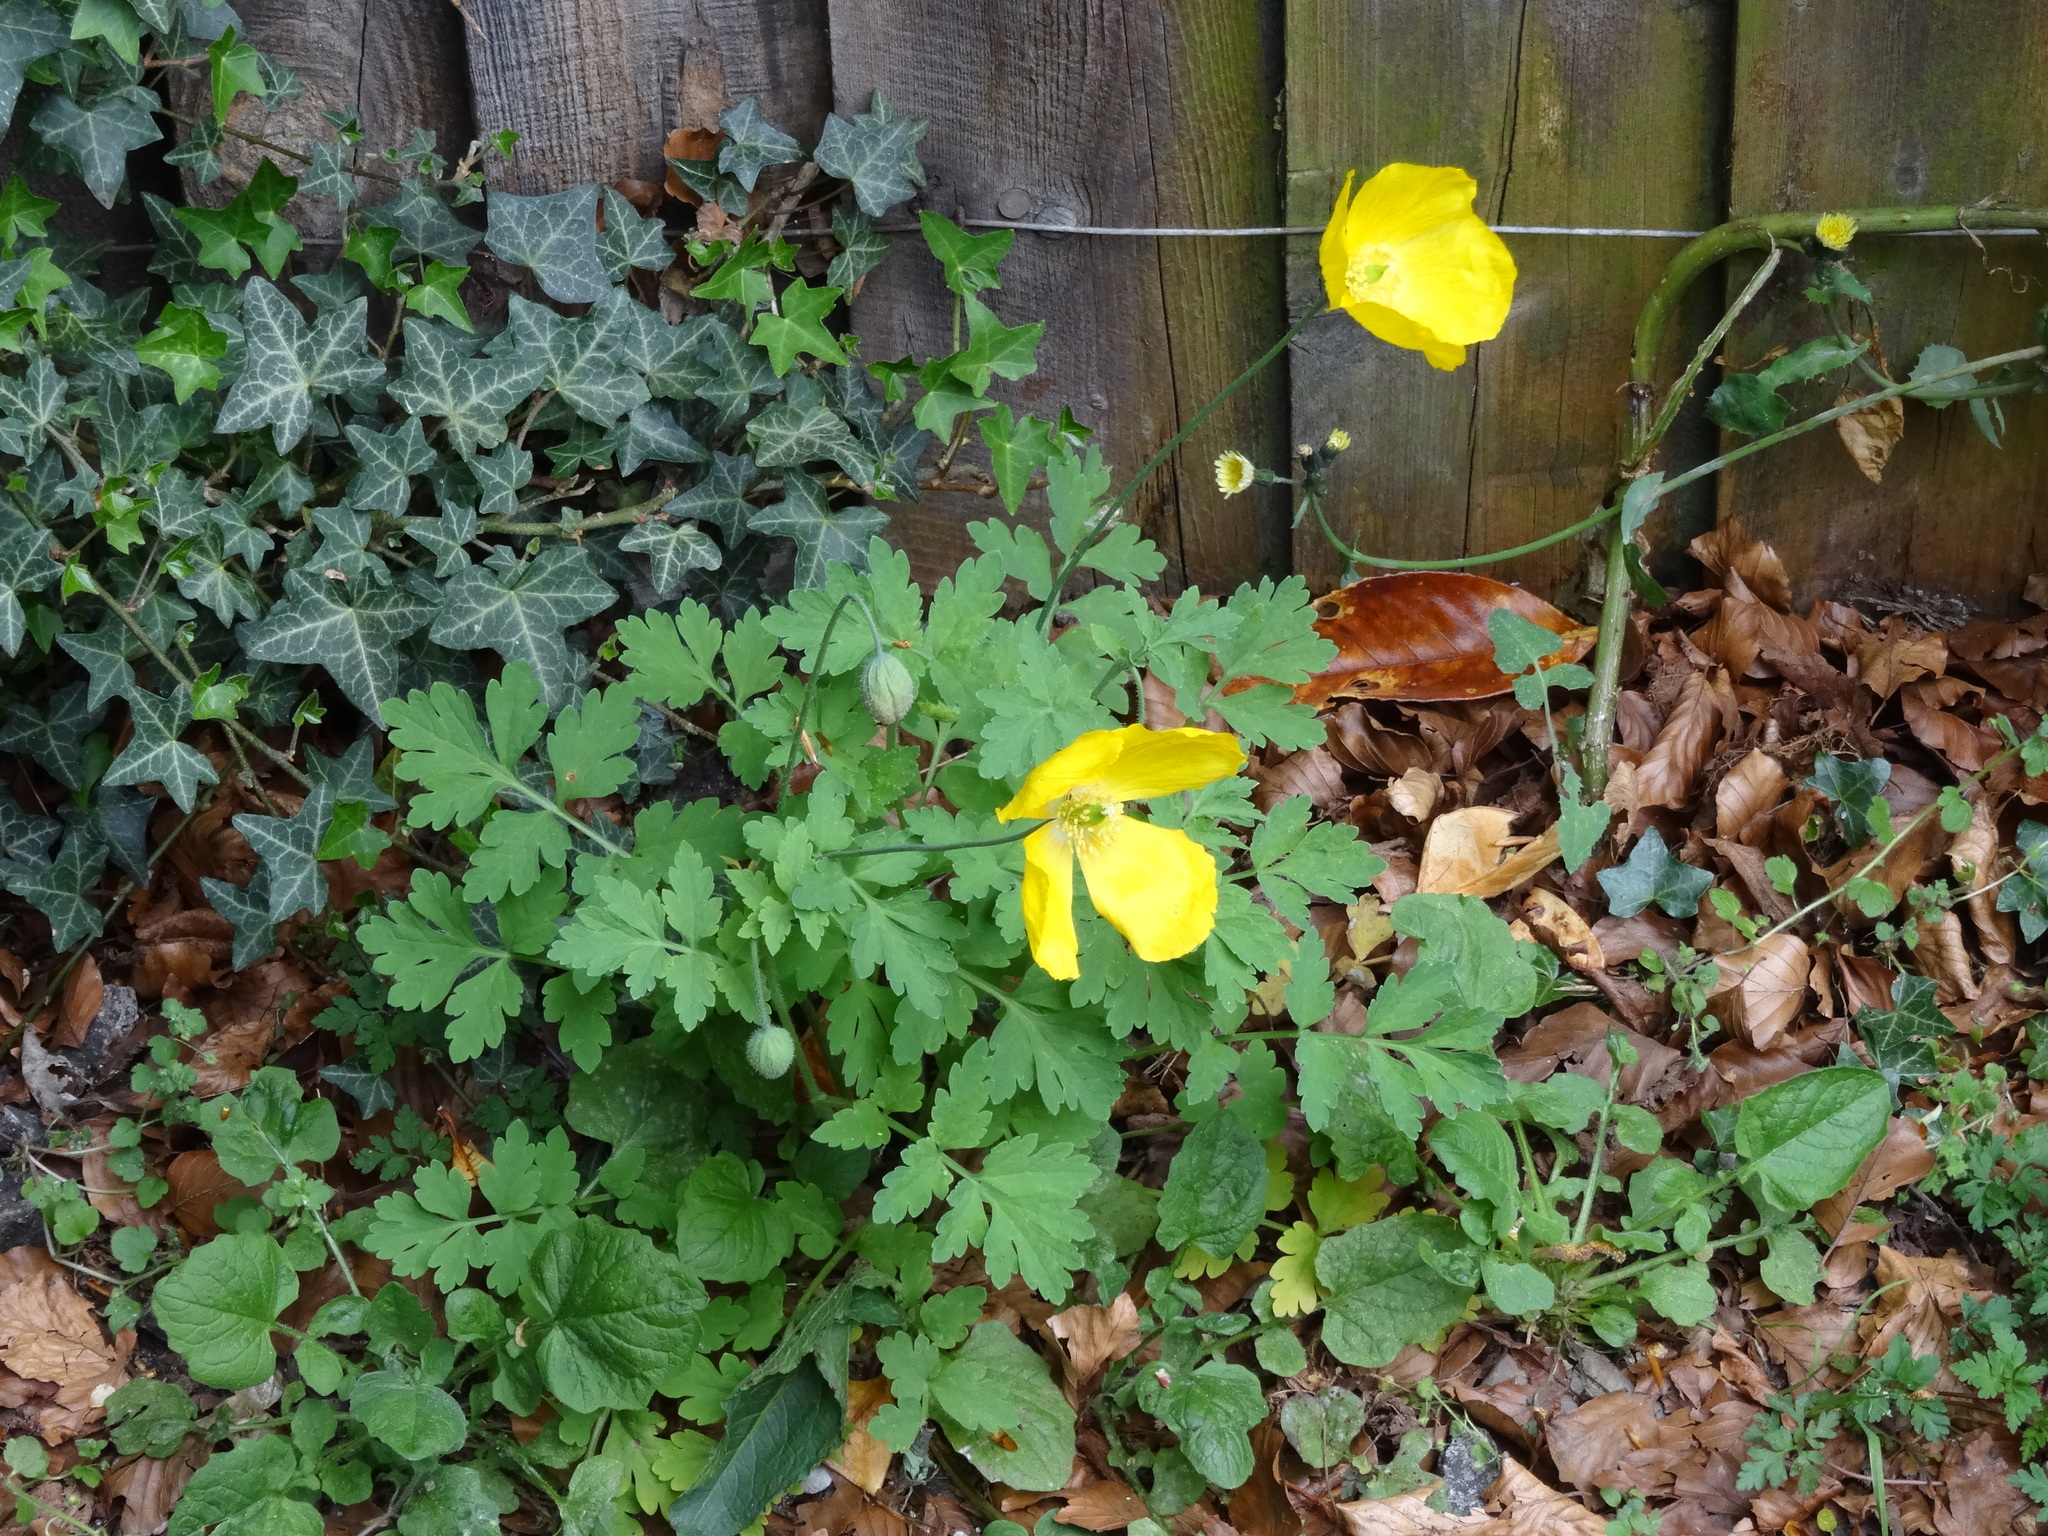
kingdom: Plantae
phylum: Tracheophyta
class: Magnoliopsida
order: Ranunculales
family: Papaveraceae
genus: Papaver
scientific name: Papaver cambricum
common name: Poppy
